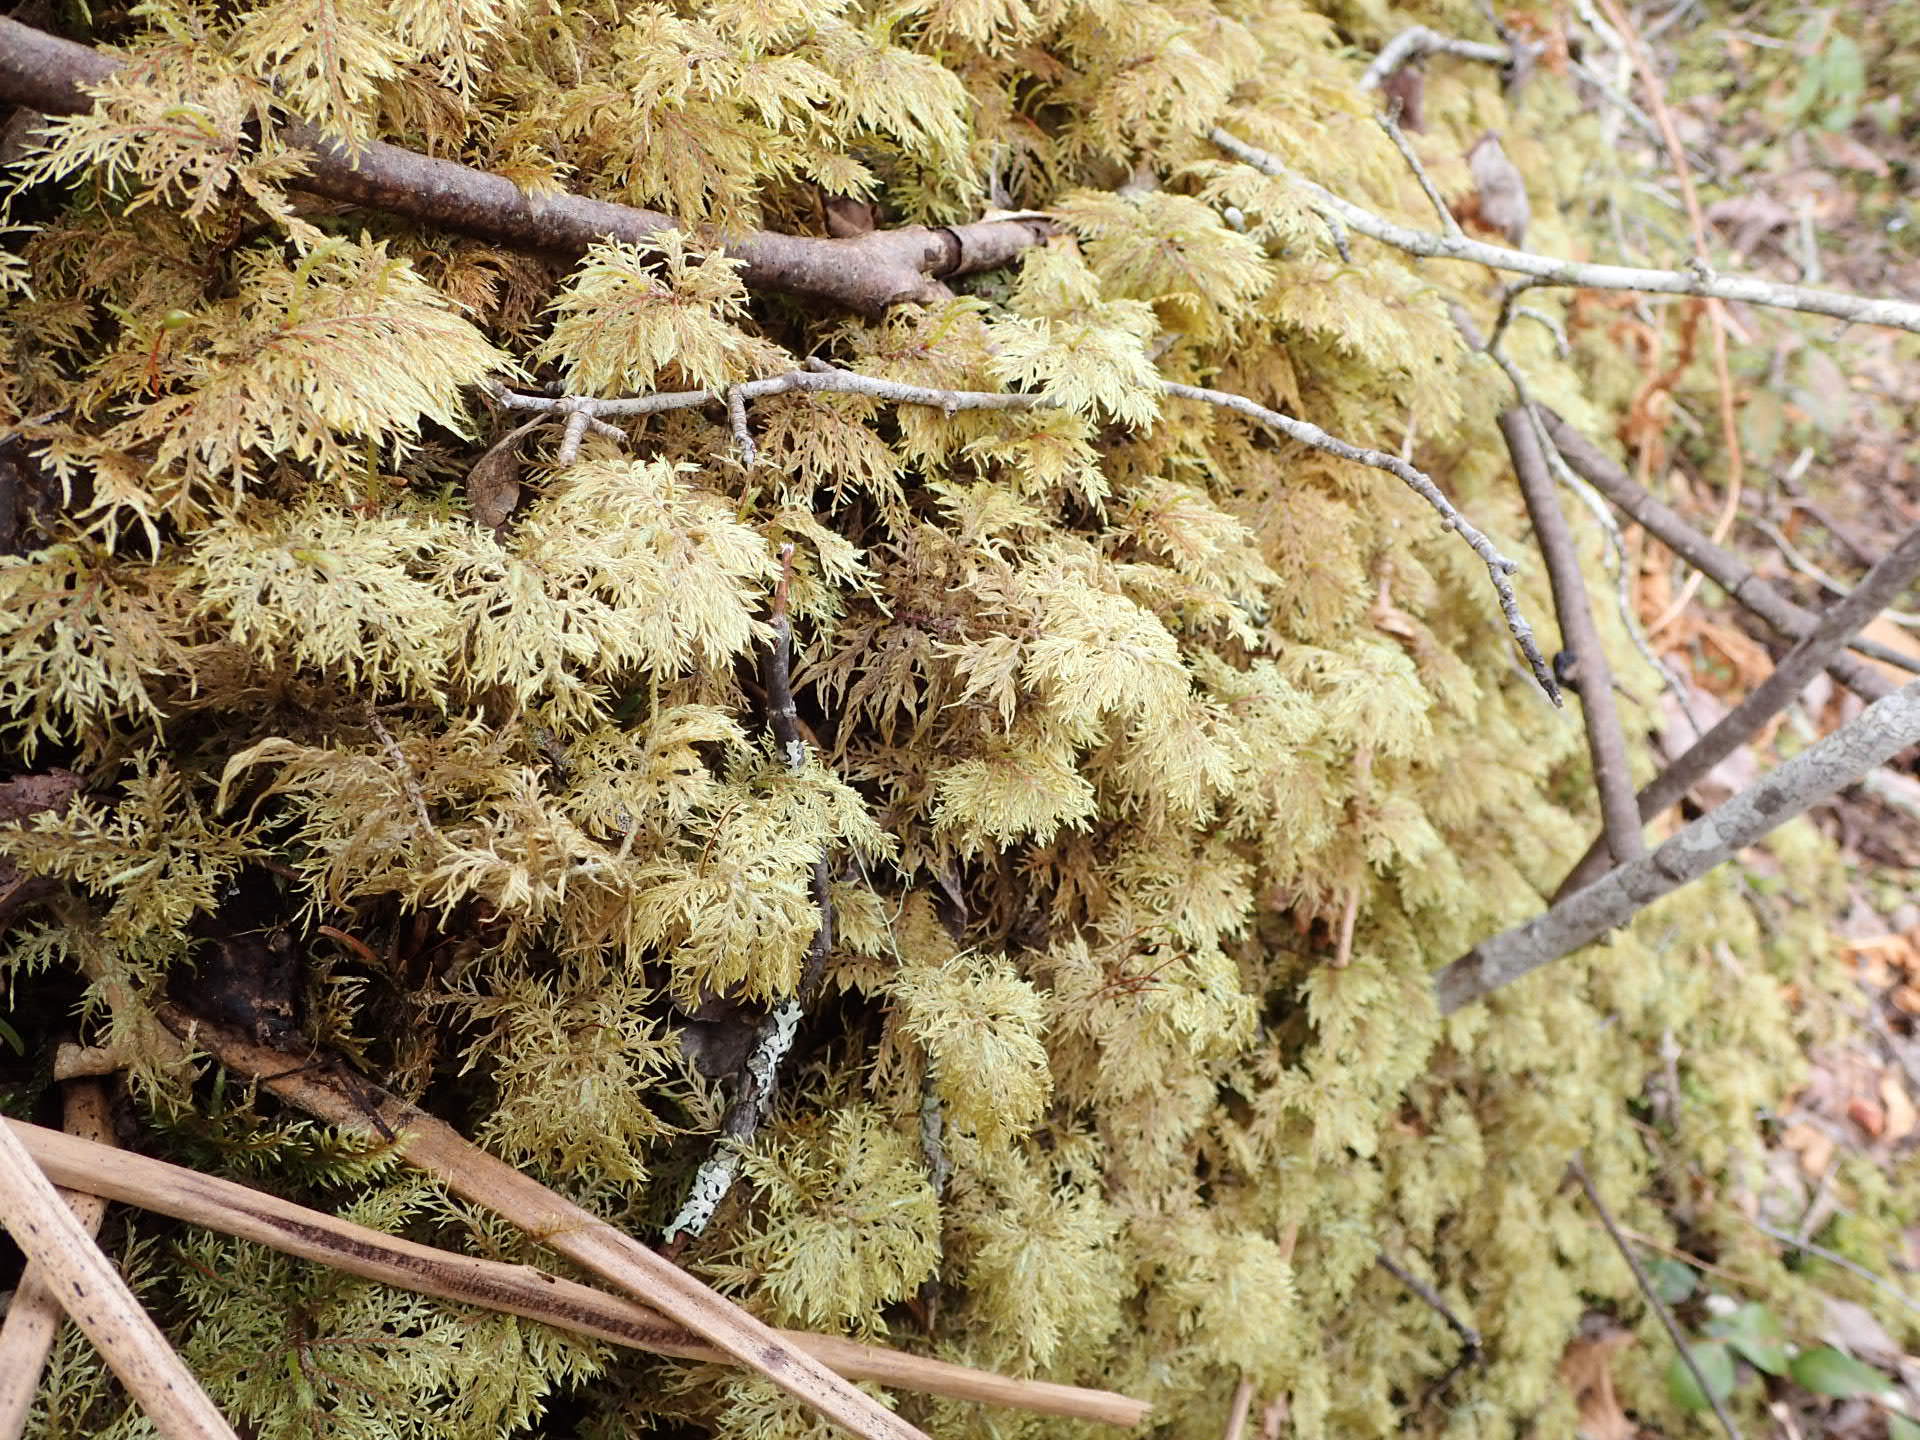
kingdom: Plantae
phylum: Bryophyta
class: Bryopsida
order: Hypnales
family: Hylocomiaceae
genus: Hylocomium
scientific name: Hylocomium splendens
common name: Stairstep moss
